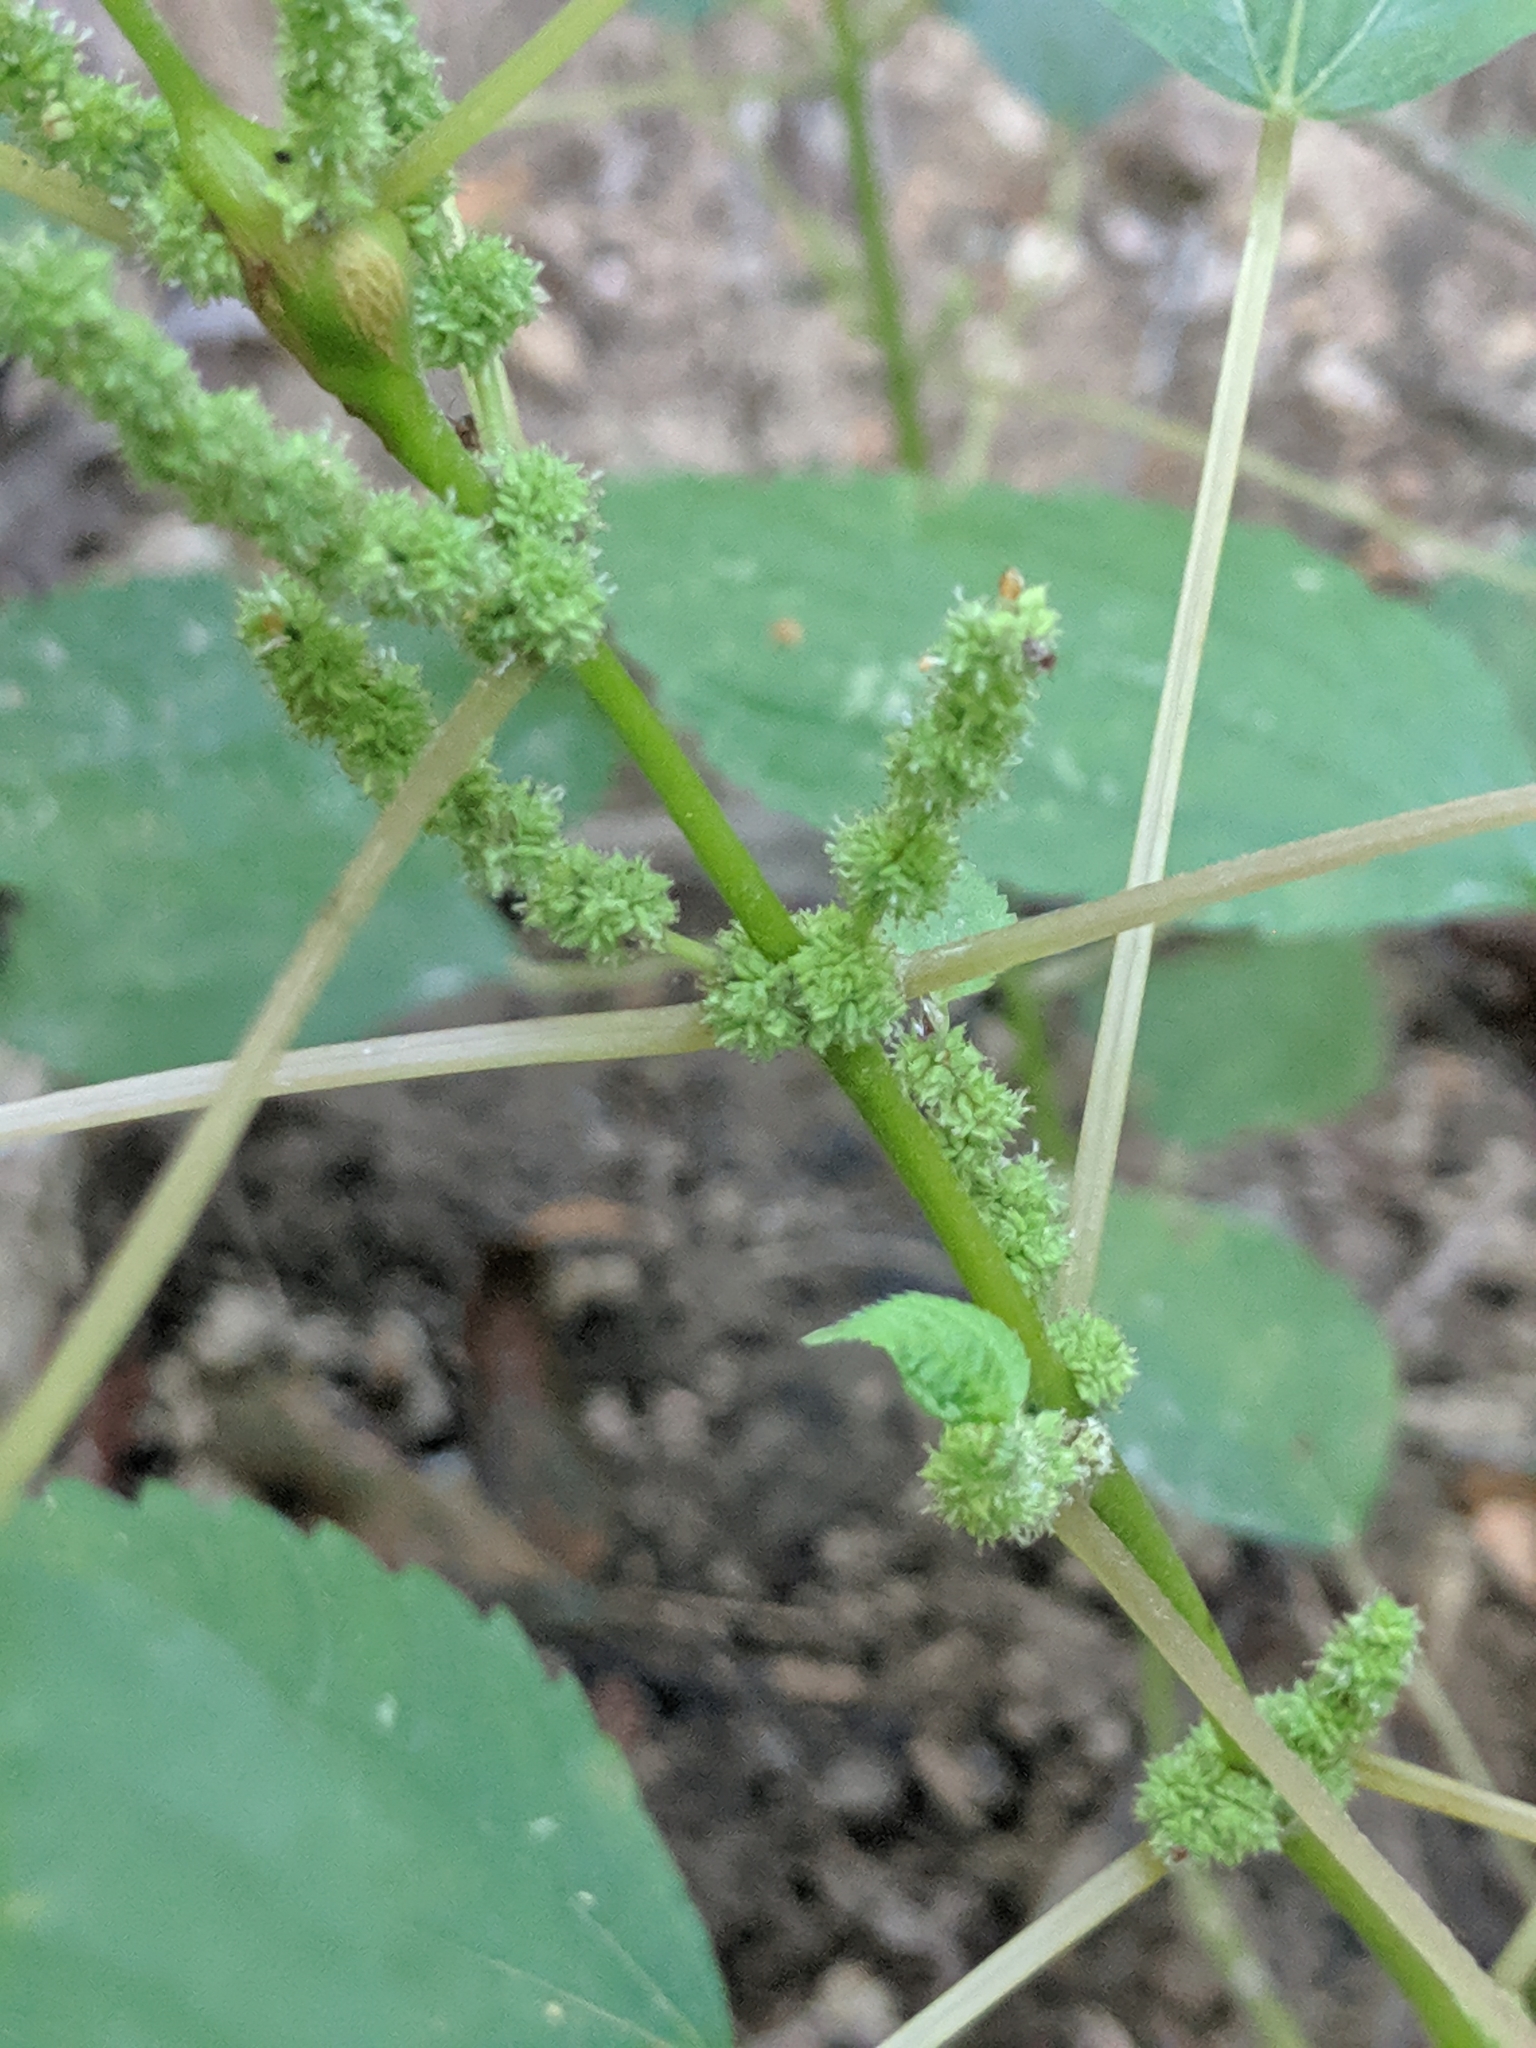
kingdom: Plantae
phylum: Tracheophyta
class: Magnoliopsida
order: Rosales
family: Urticaceae
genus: Boehmeria
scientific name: Boehmeria cylindrica
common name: Bog-hemp
